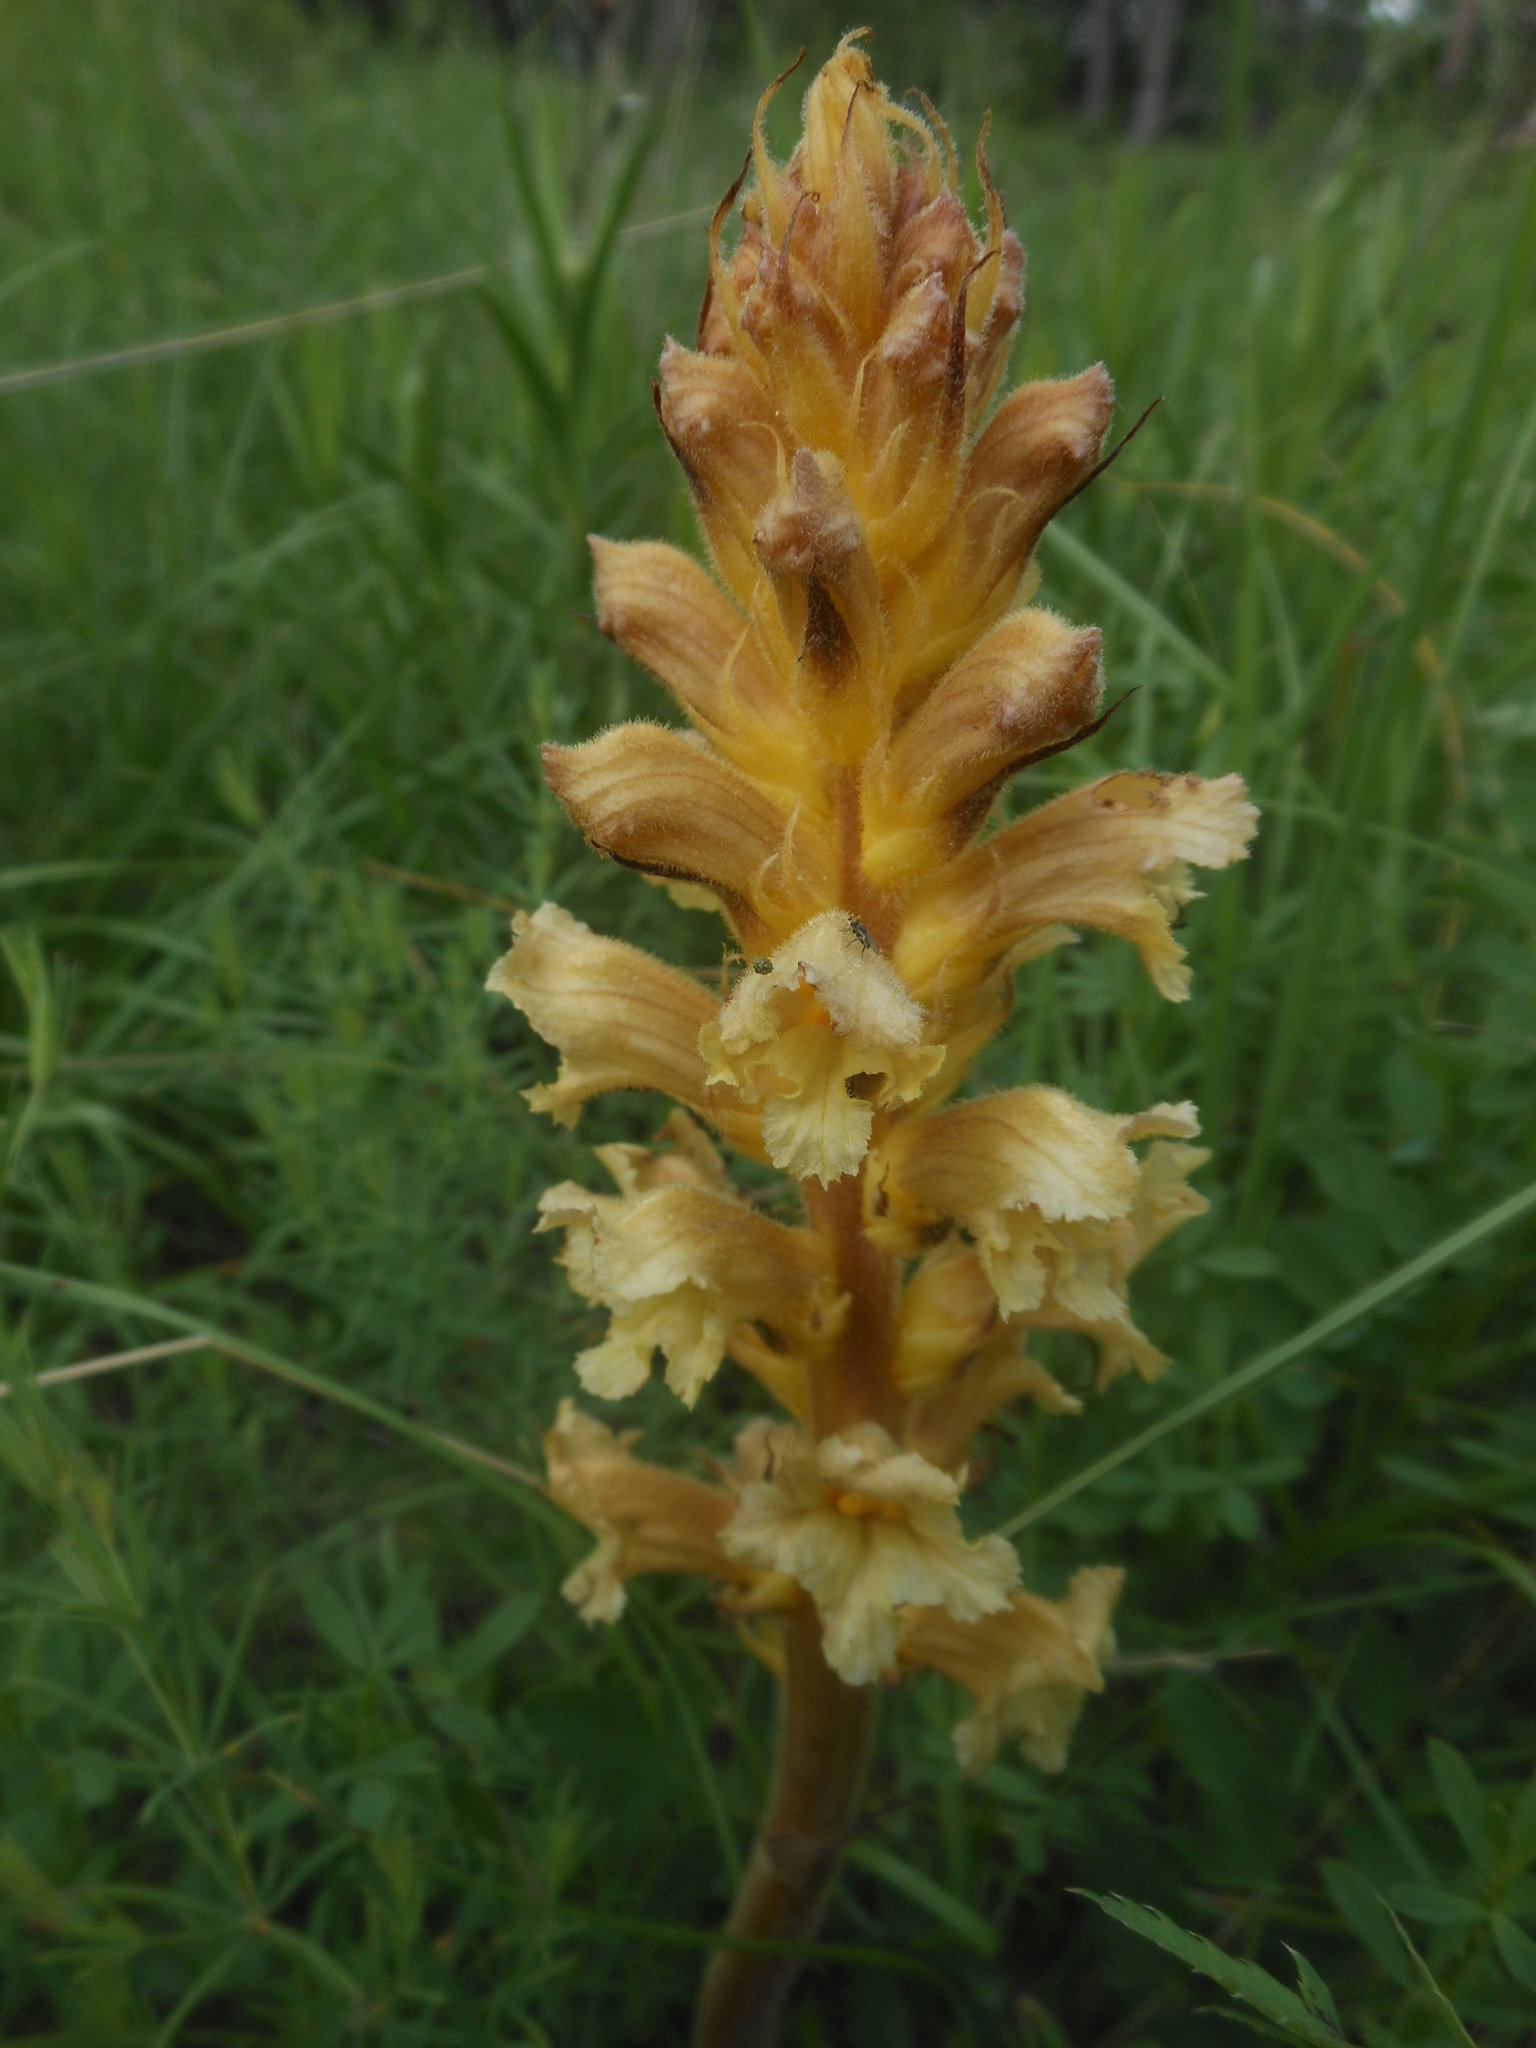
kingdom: Plantae
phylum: Tracheophyta
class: Magnoliopsida
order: Lamiales
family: Orobanchaceae
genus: Orobanche
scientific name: Orobanche lutea
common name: Yellow broomrape
